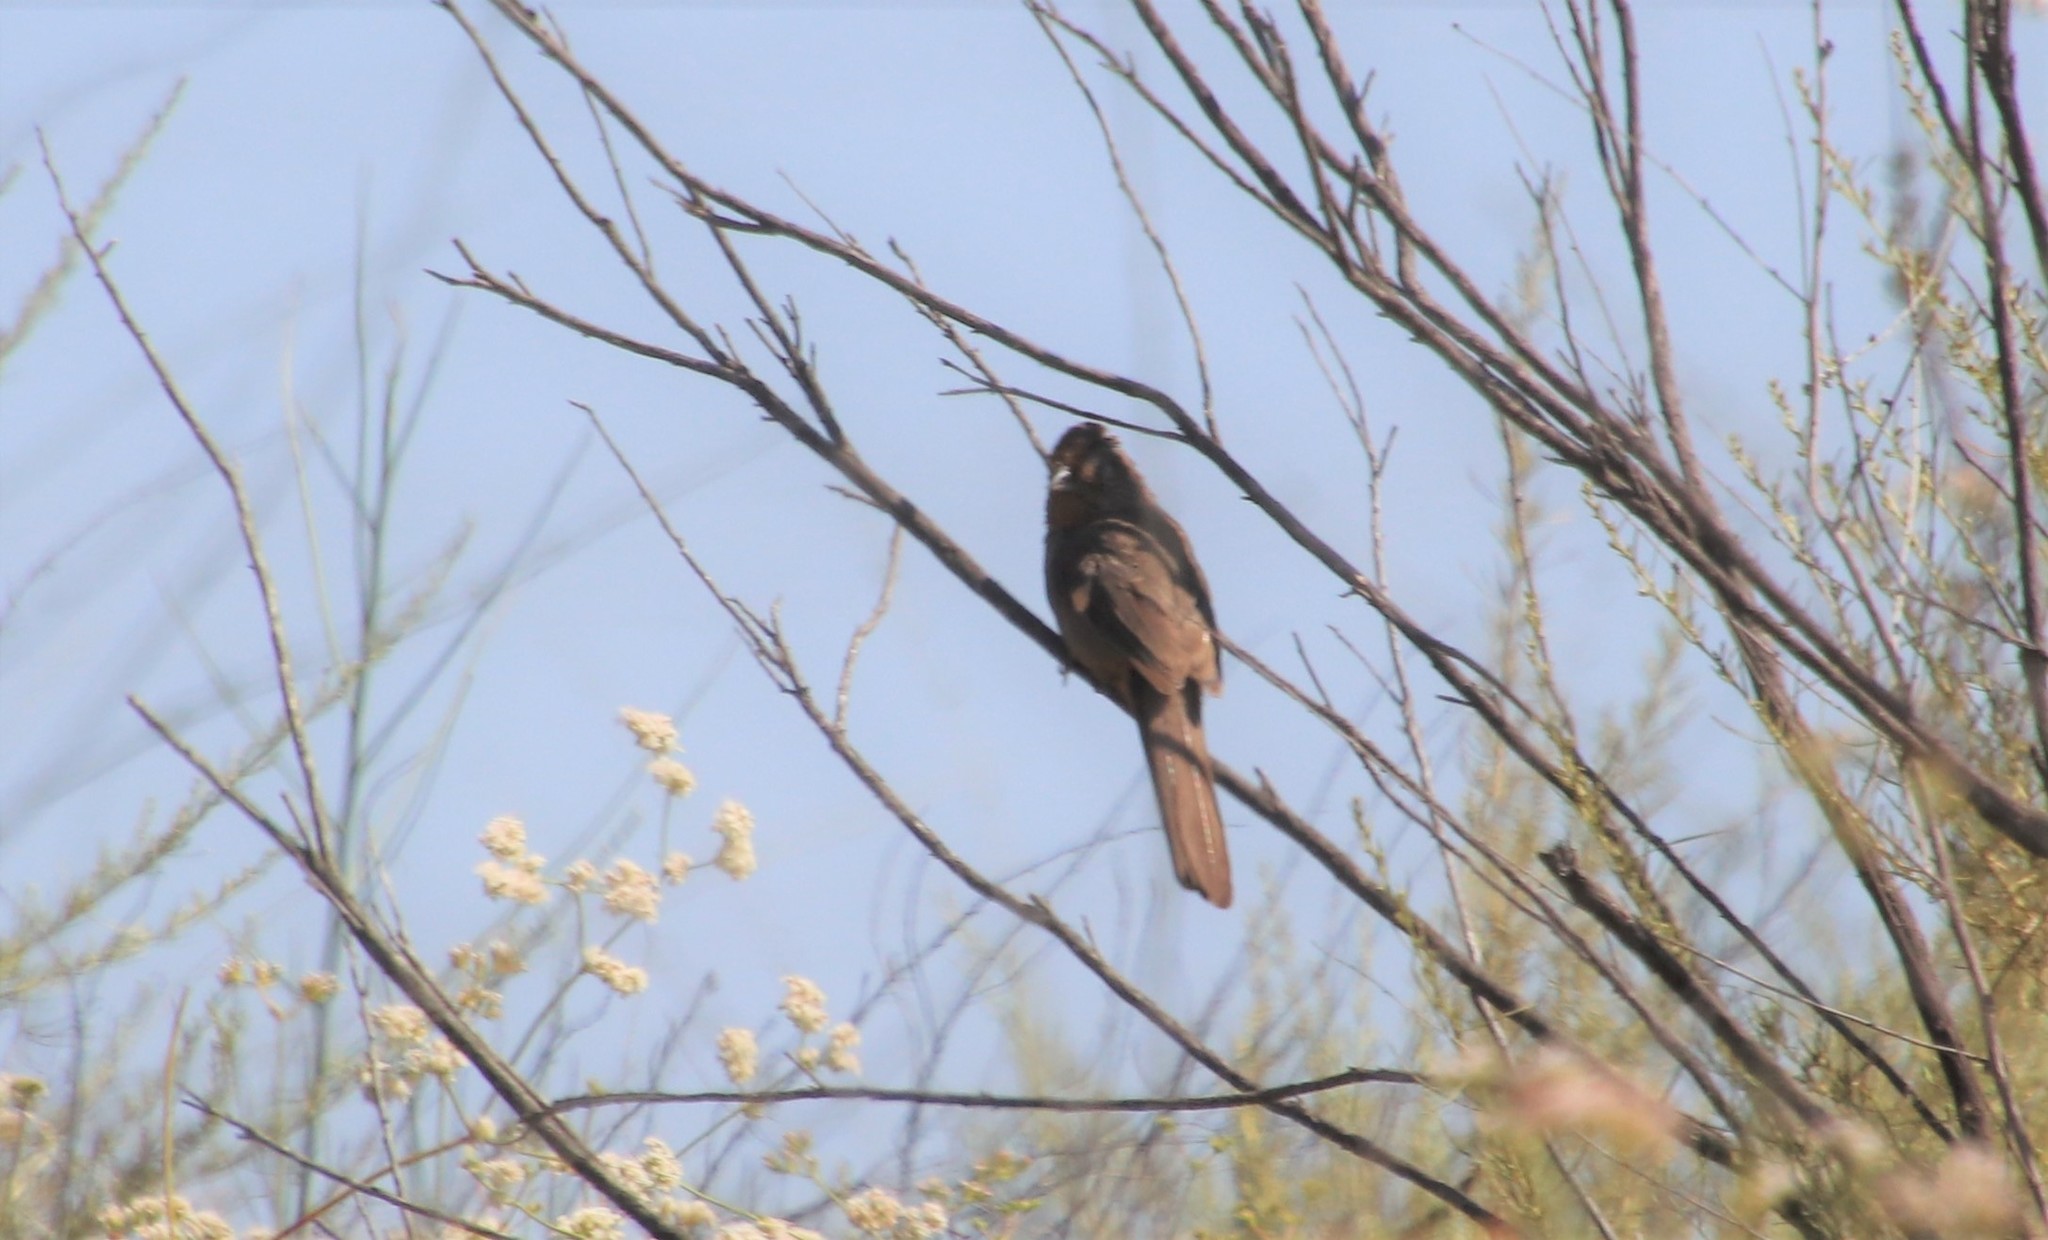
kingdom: Animalia
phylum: Chordata
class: Aves
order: Passeriformes
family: Passerellidae
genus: Melozone
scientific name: Melozone crissalis
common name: California towhee
